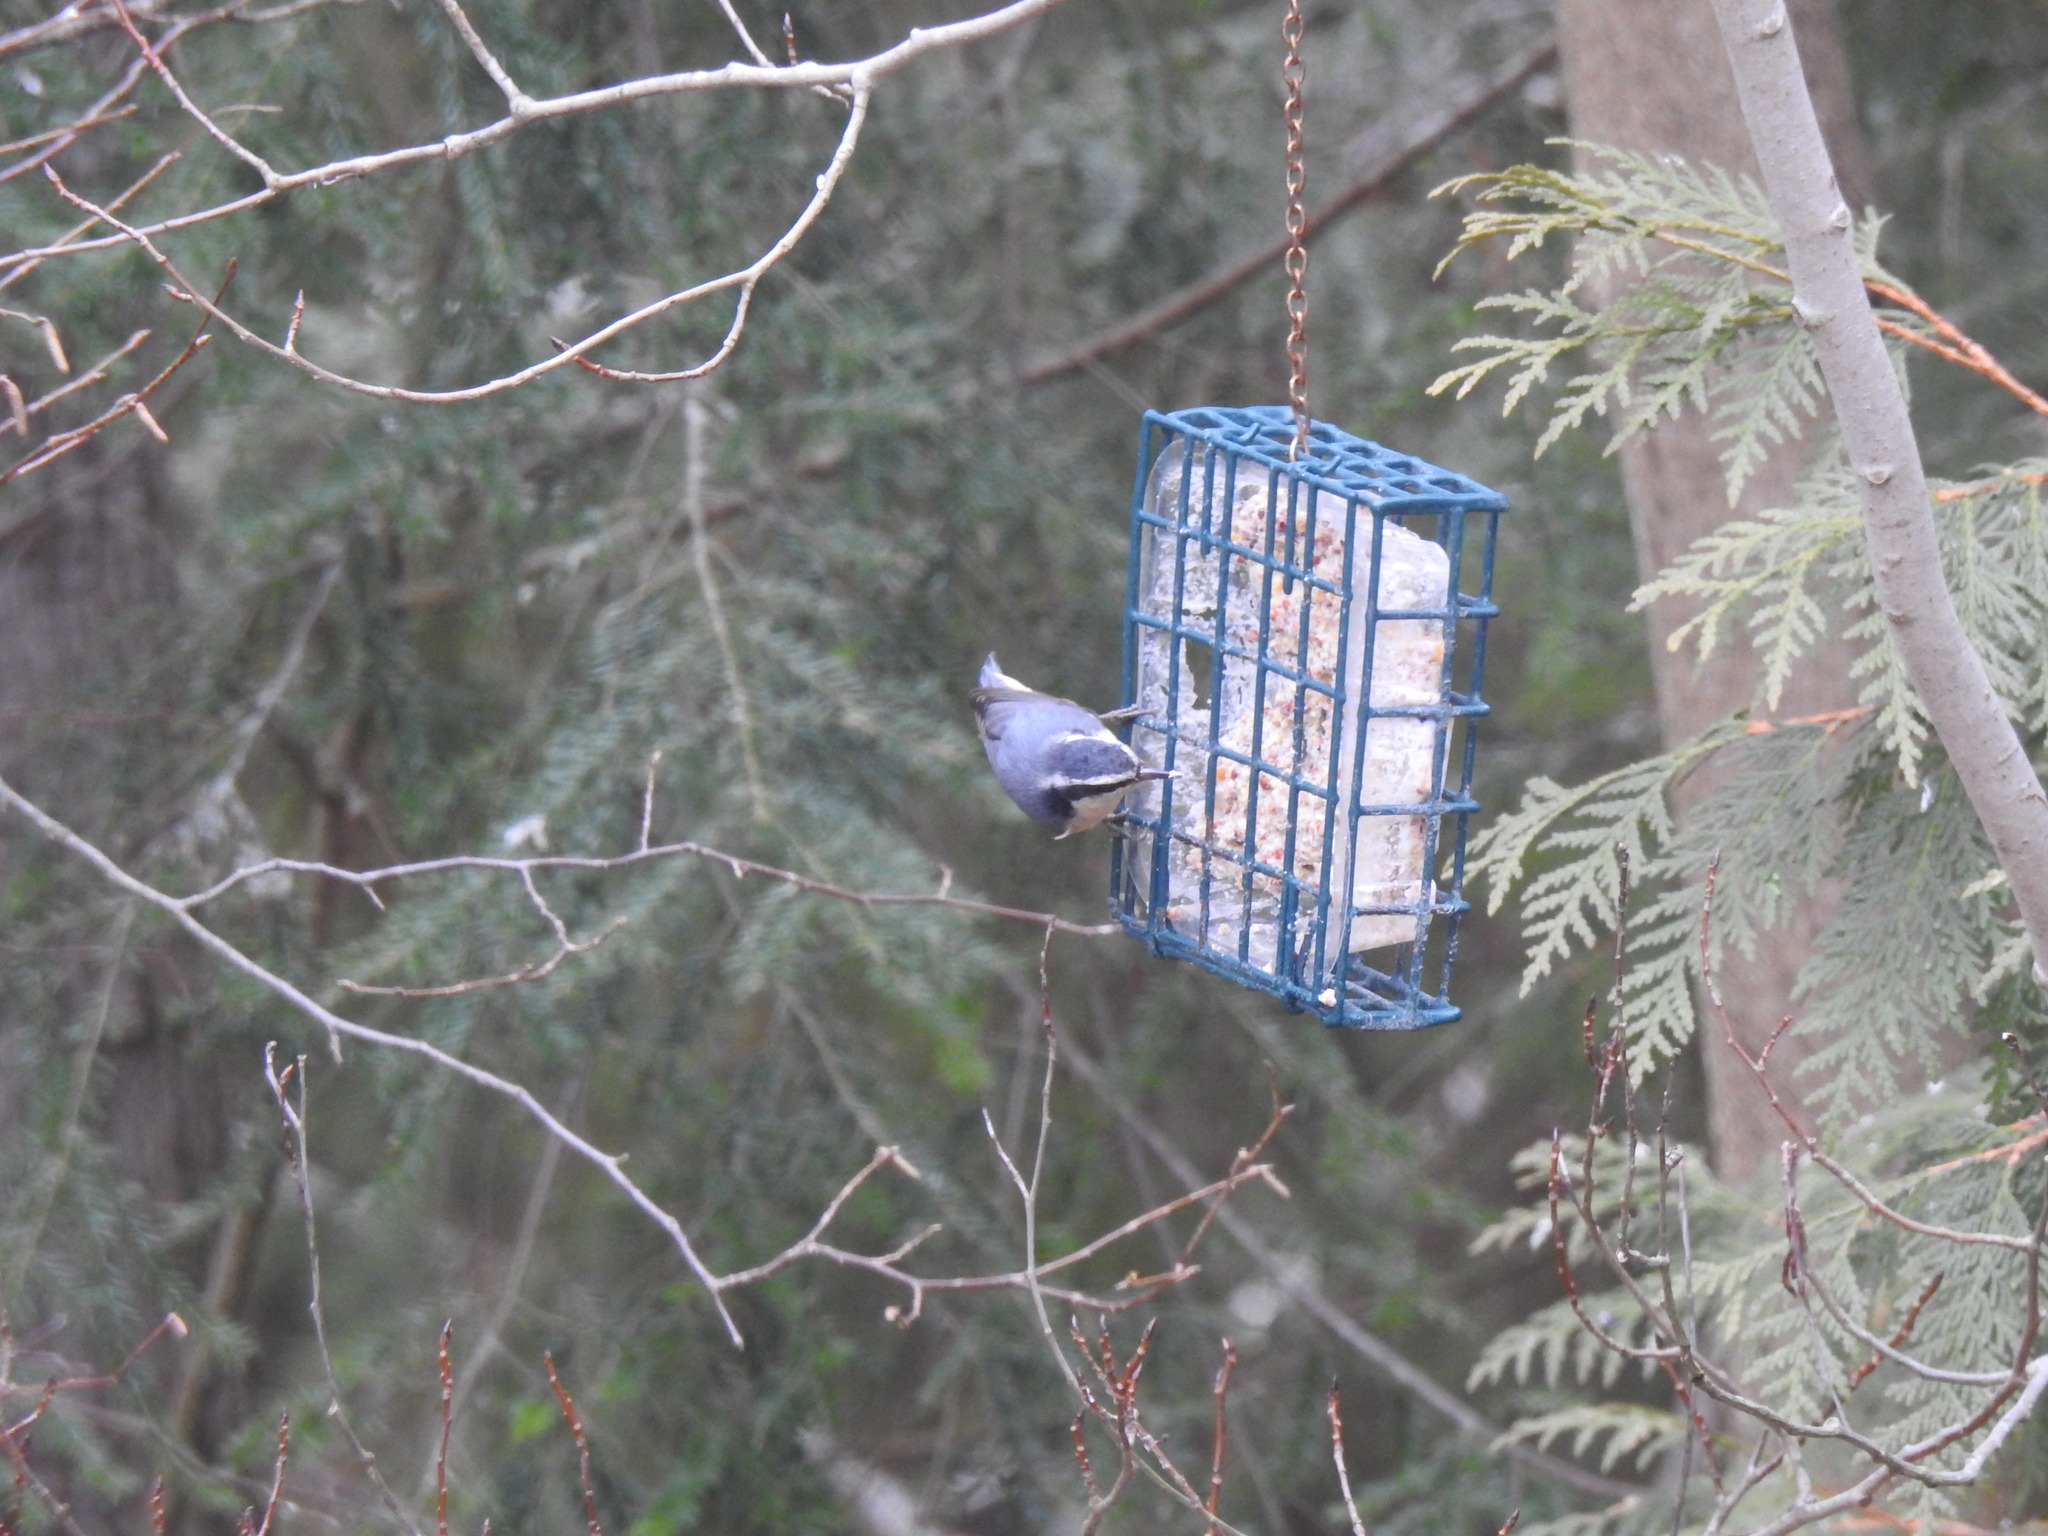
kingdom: Animalia
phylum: Chordata
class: Aves
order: Passeriformes
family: Sittidae
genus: Sitta
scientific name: Sitta carolinensis
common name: White-breasted nuthatch
